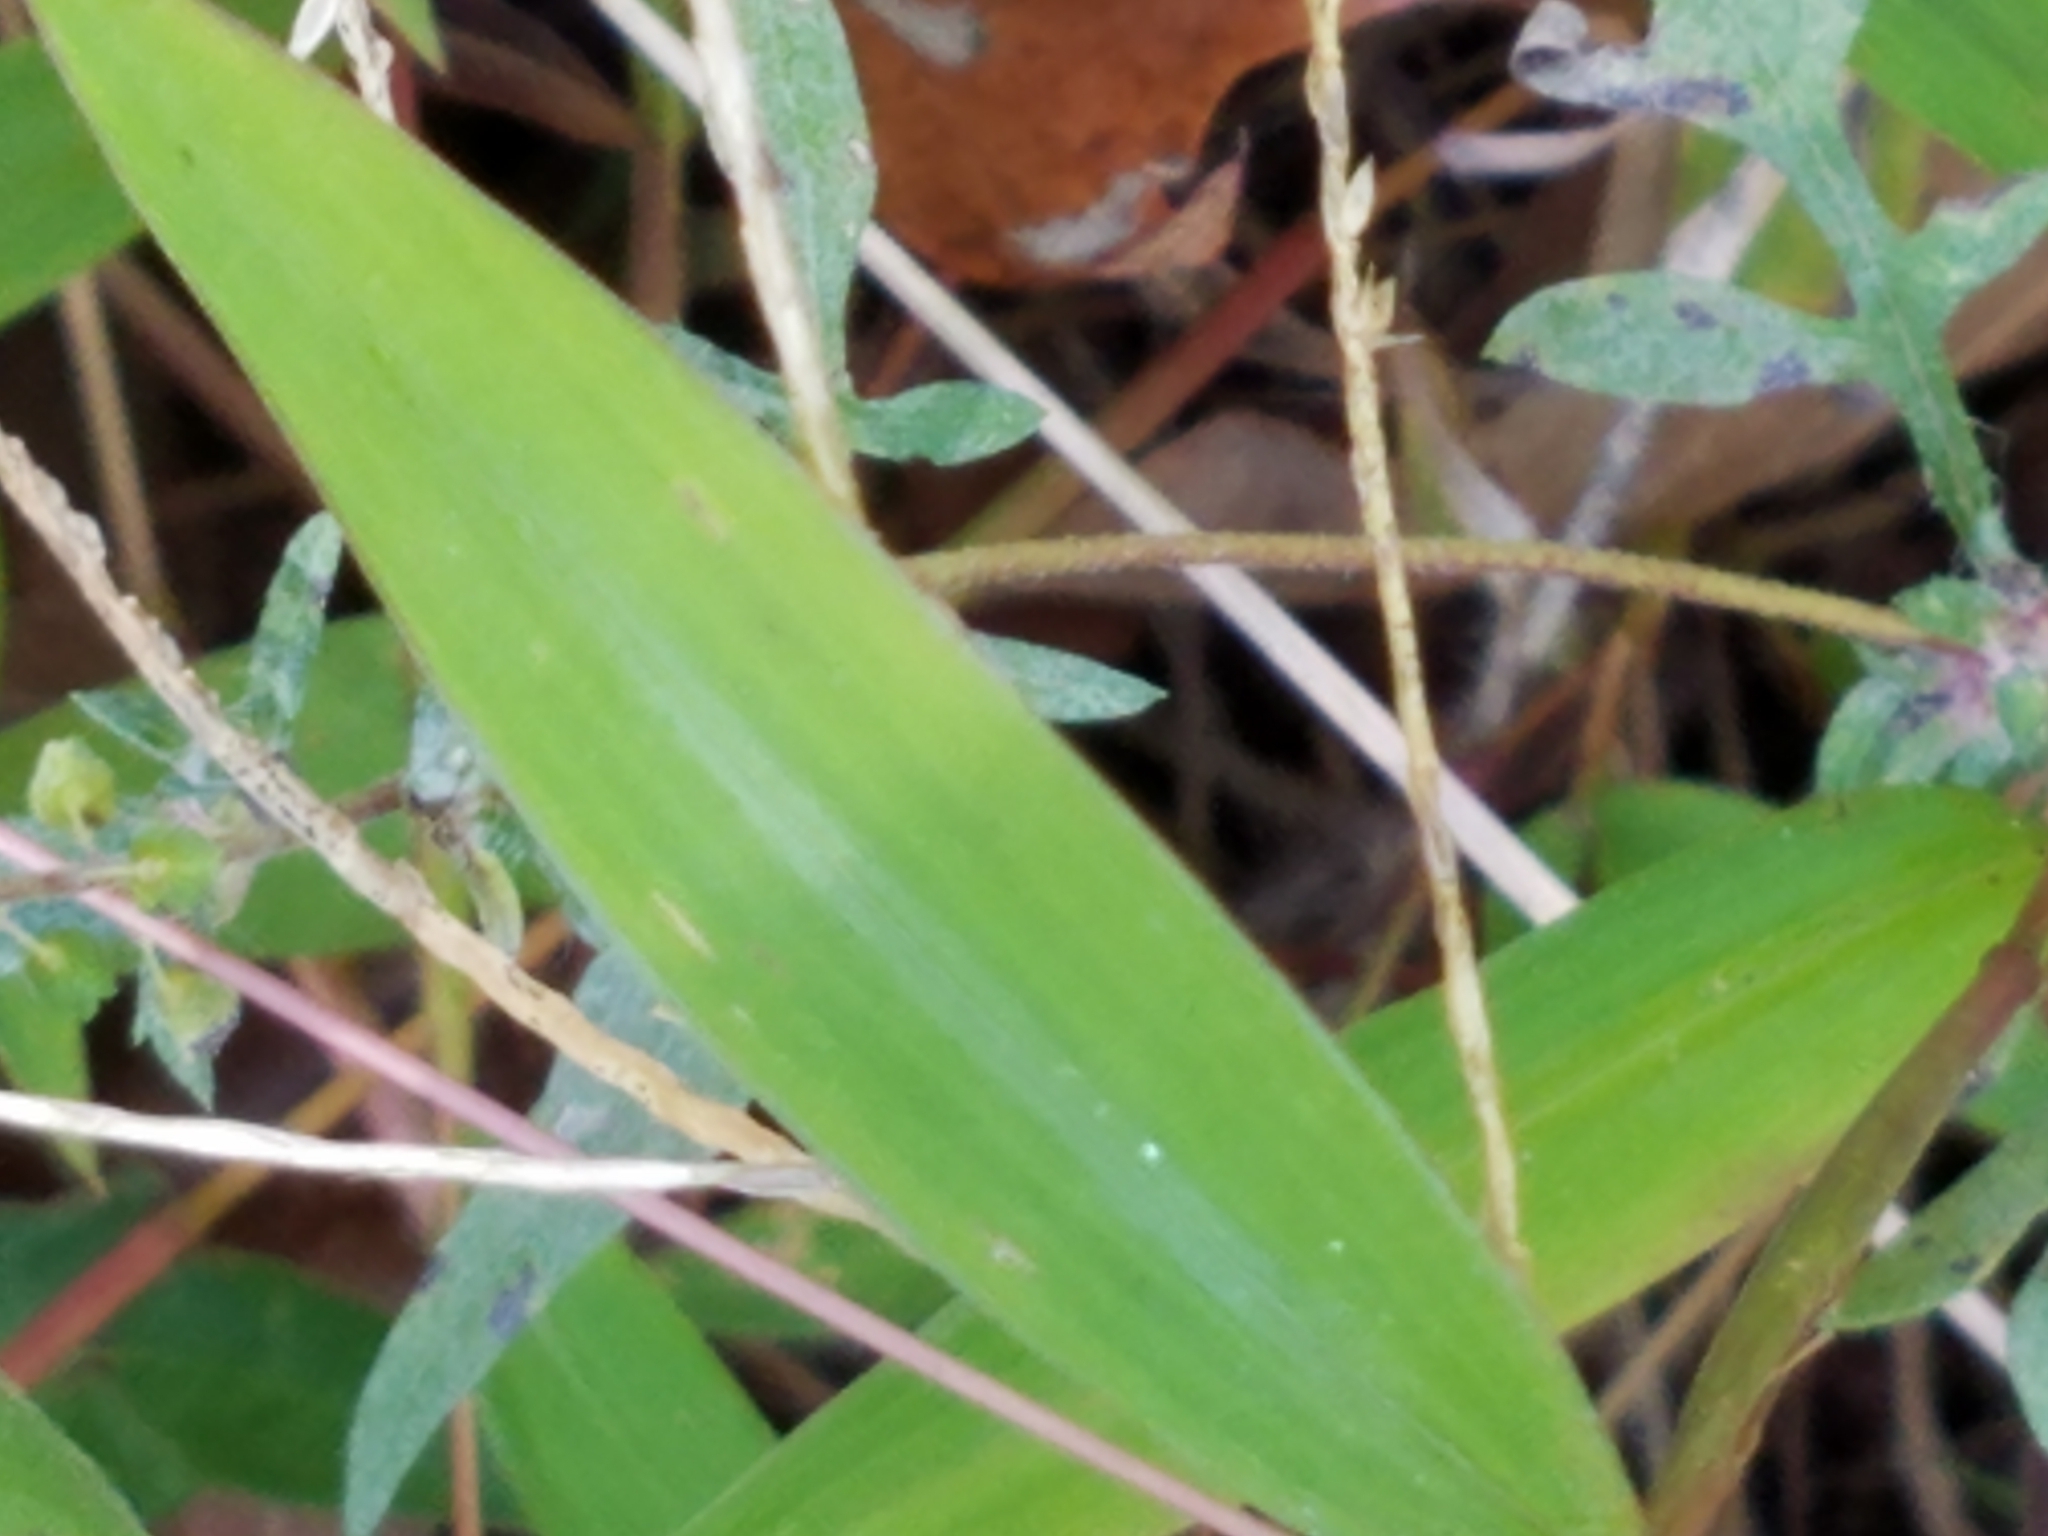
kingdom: Plantae
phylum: Tracheophyta
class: Liliopsida
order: Poales
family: Poaceae
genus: Microstegium
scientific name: Microstegium vimineum
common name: Japanese stiltgrass
